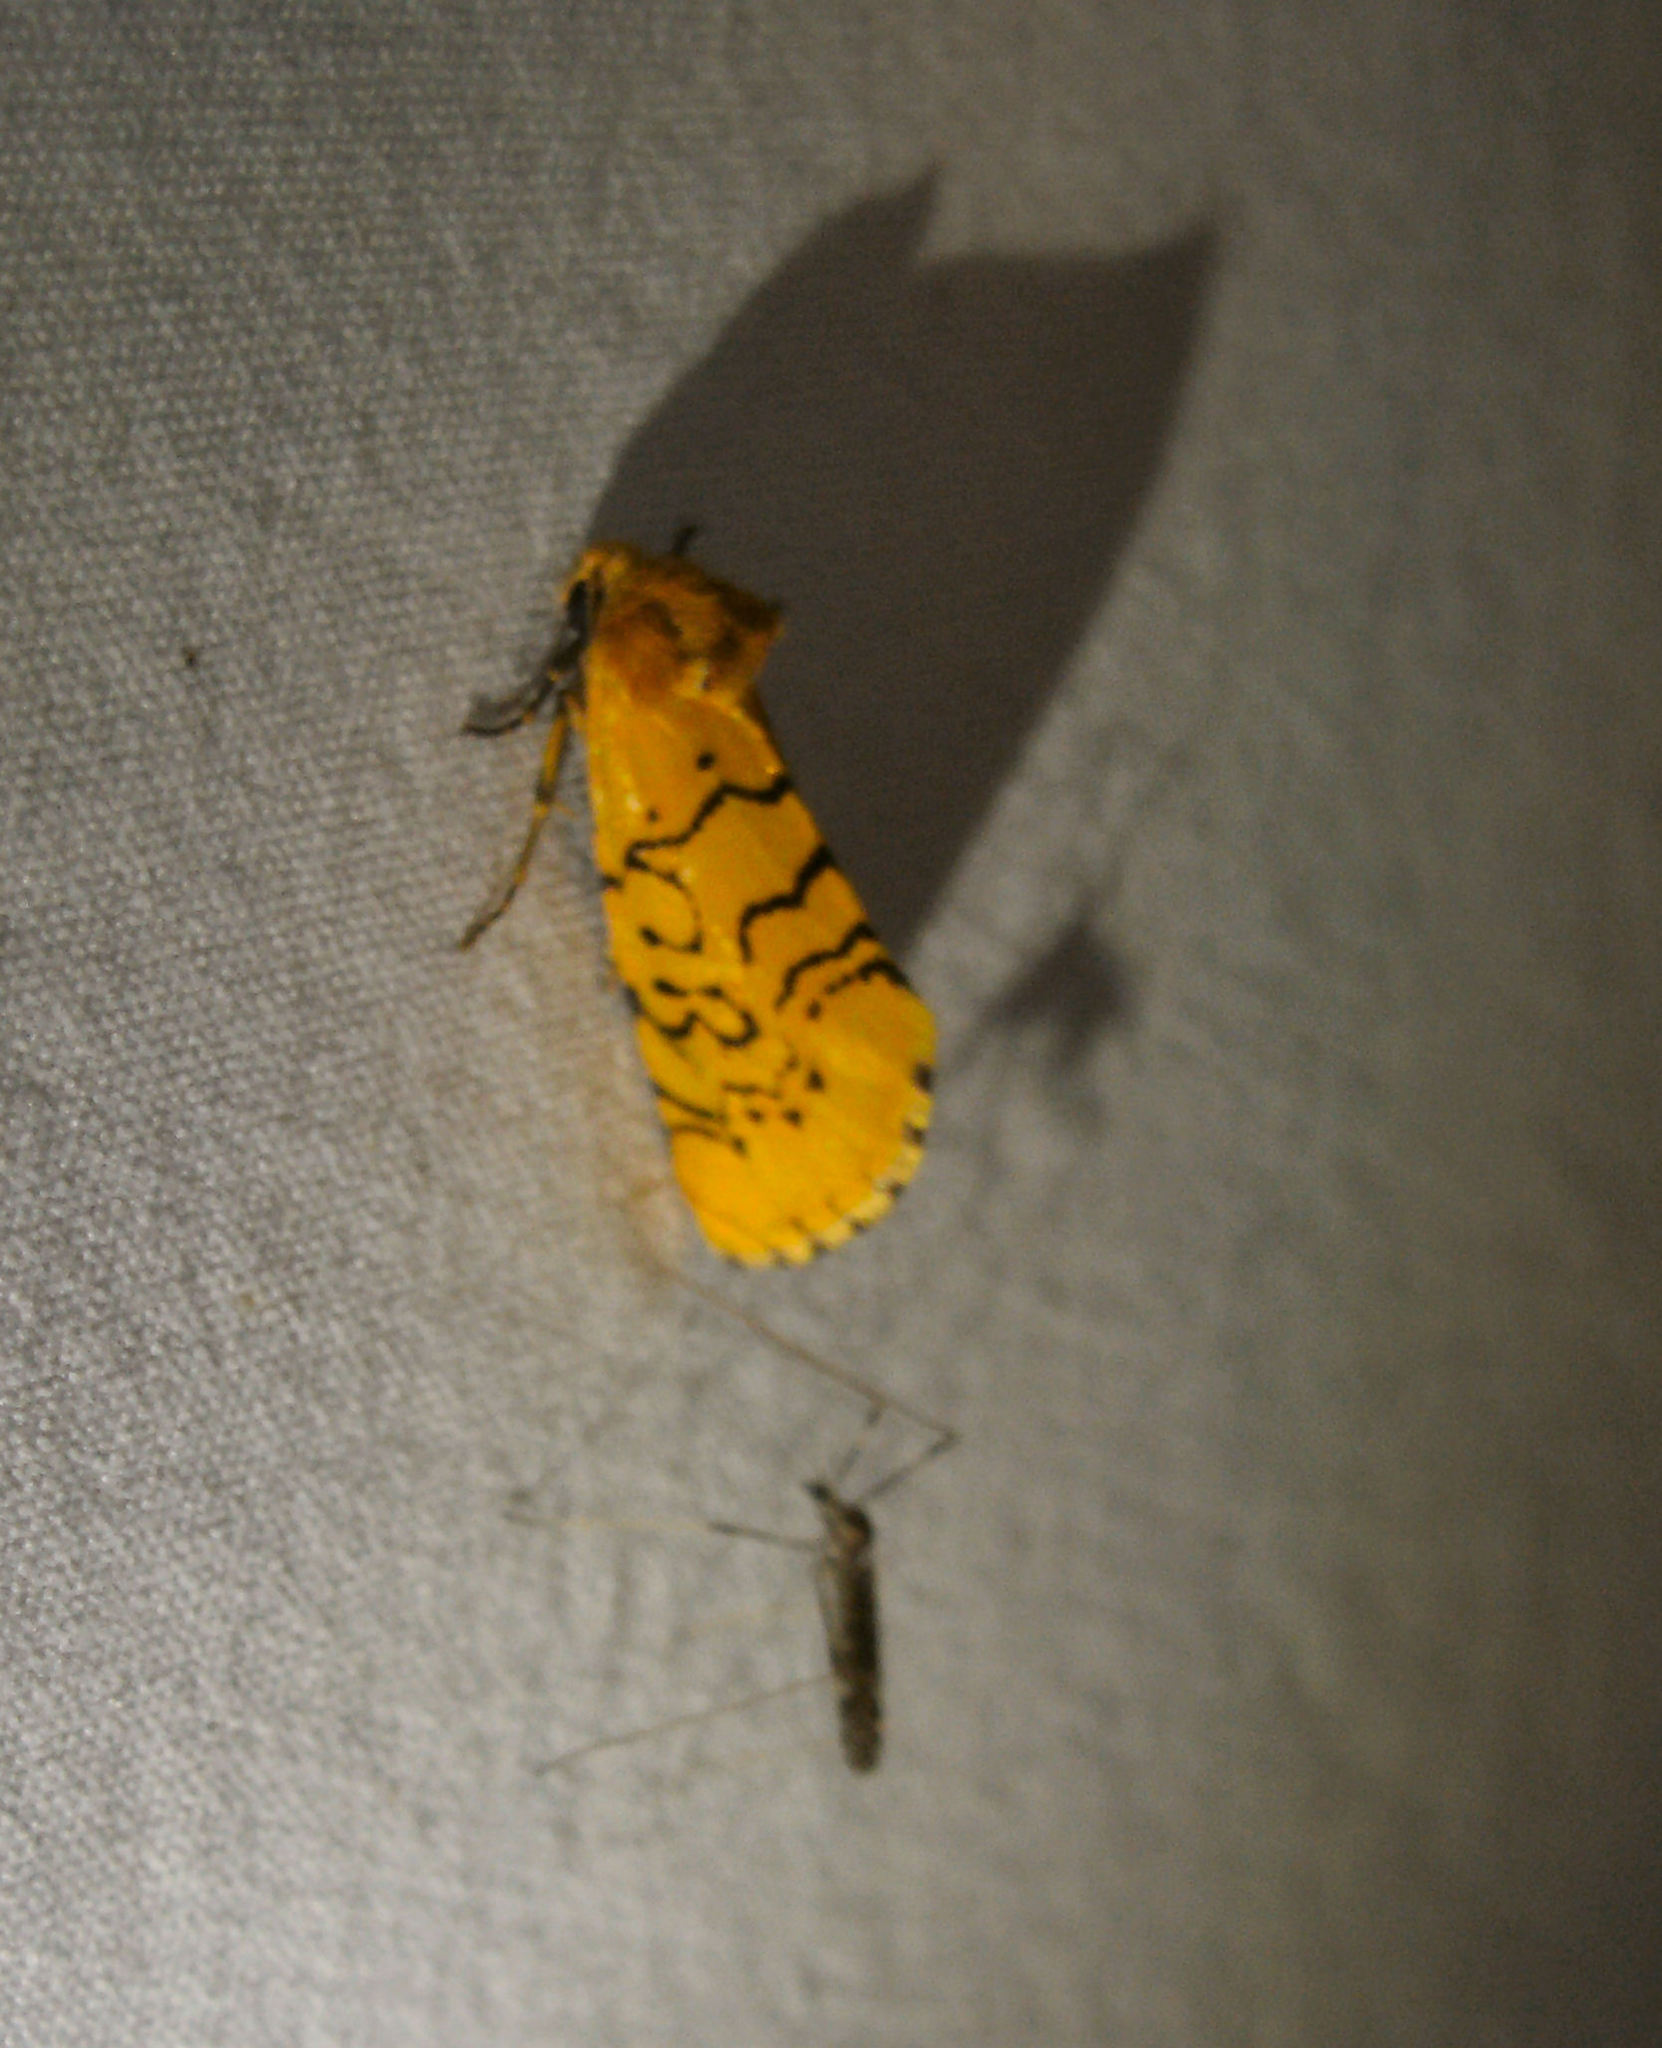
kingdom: Animalia
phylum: Arthropoda
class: Insecta
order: Lepidoptera
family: Noctuidae
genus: Chrysoecia
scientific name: Chrysoecia atrolinea
